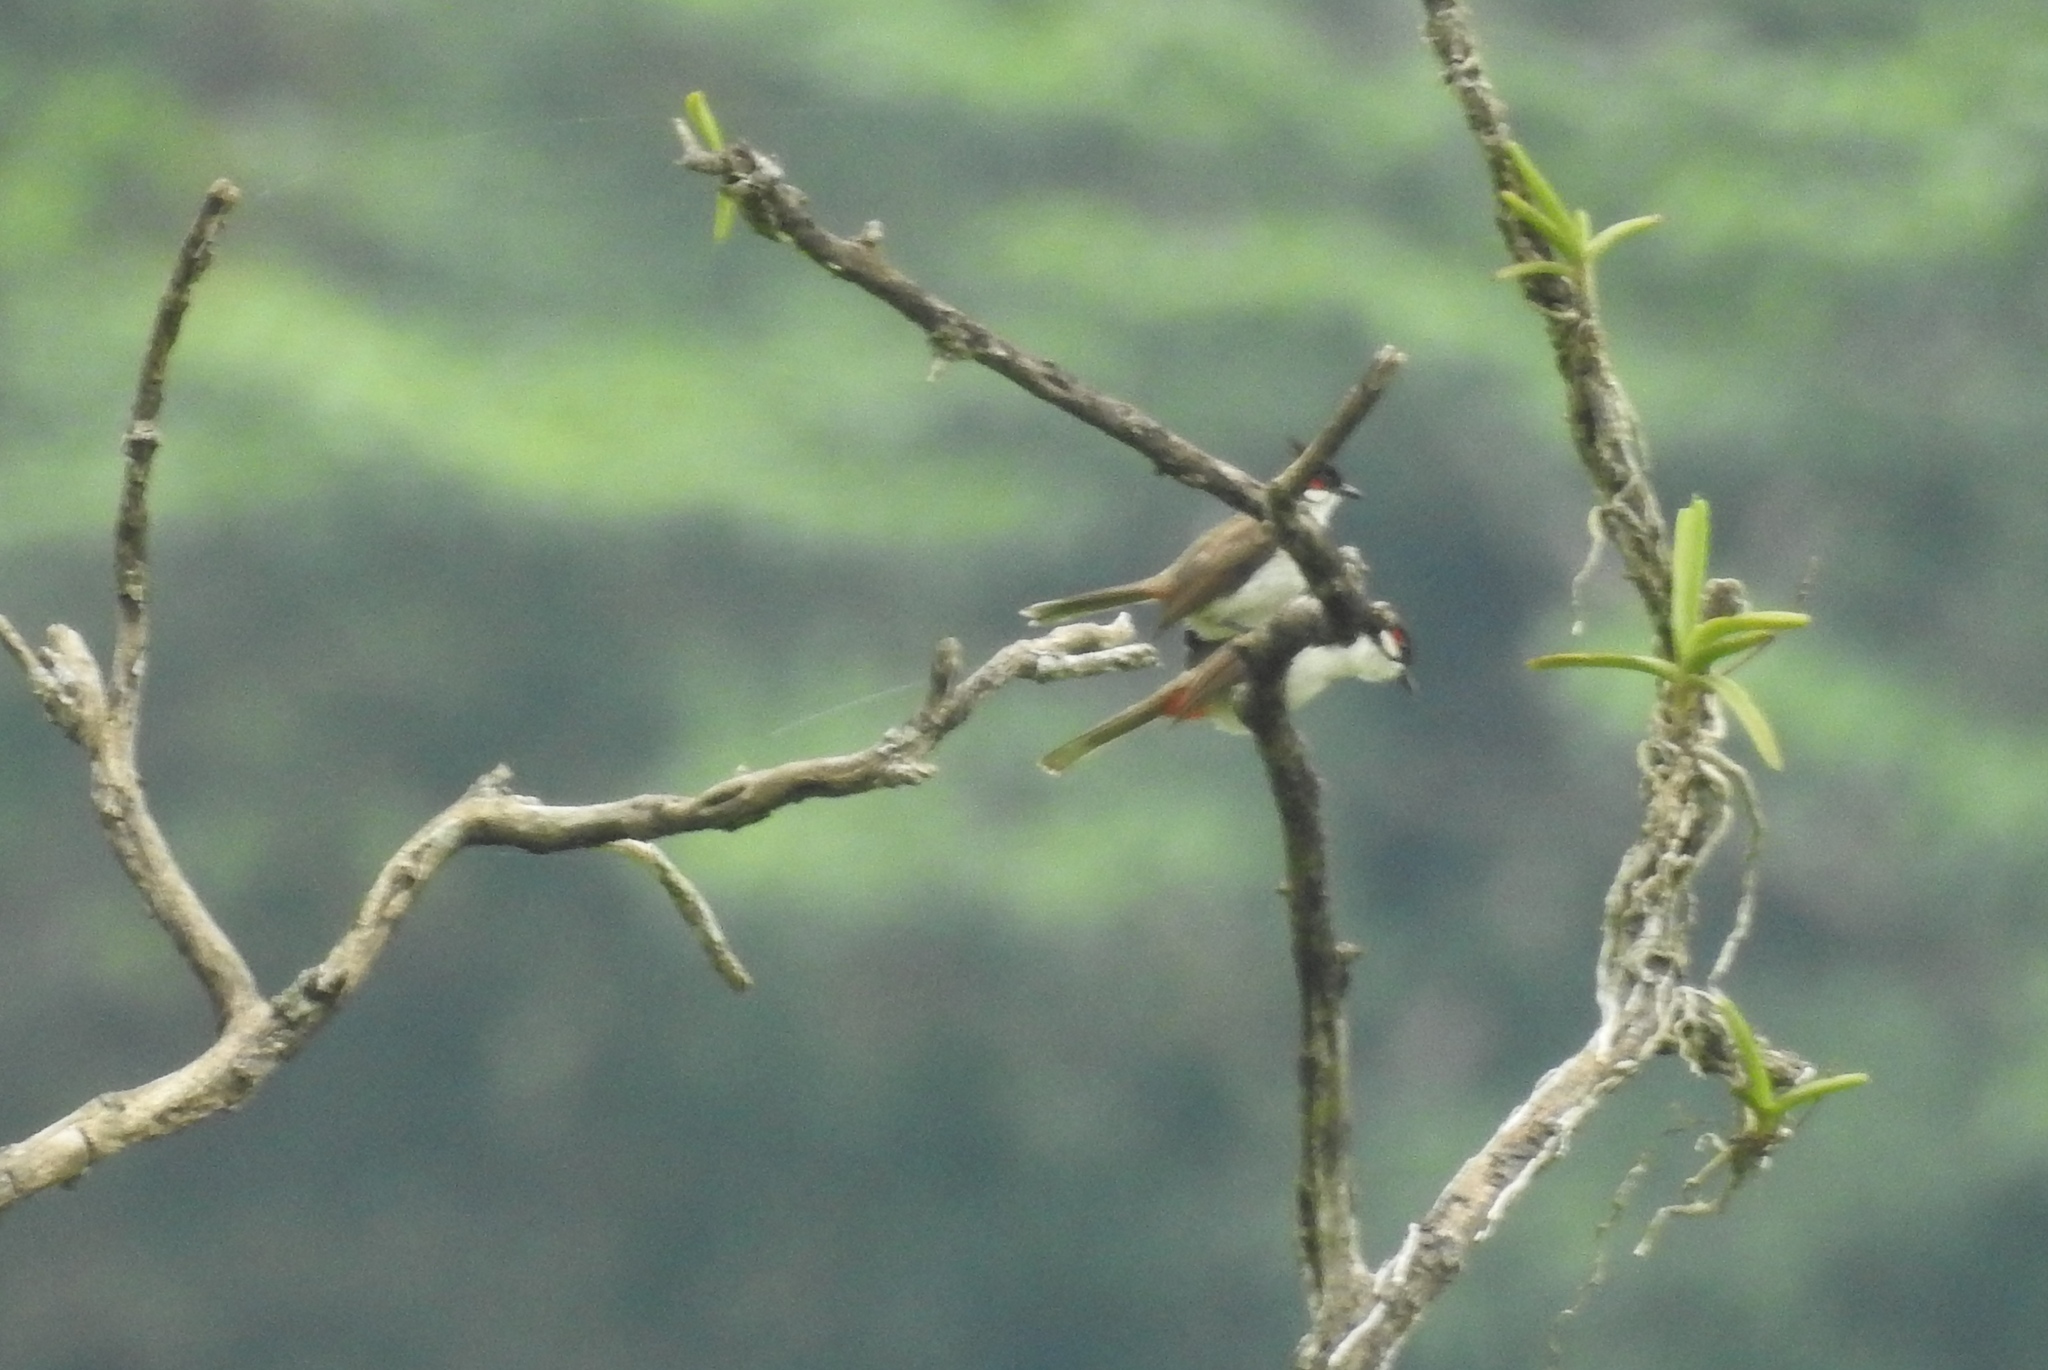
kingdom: Animalia
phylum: Chordata
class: Aves
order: Passeriformes
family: Pycnonotidae
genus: Pycnonotus
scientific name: Pycnonotus jocosus
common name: Red-whiskered bulbul
